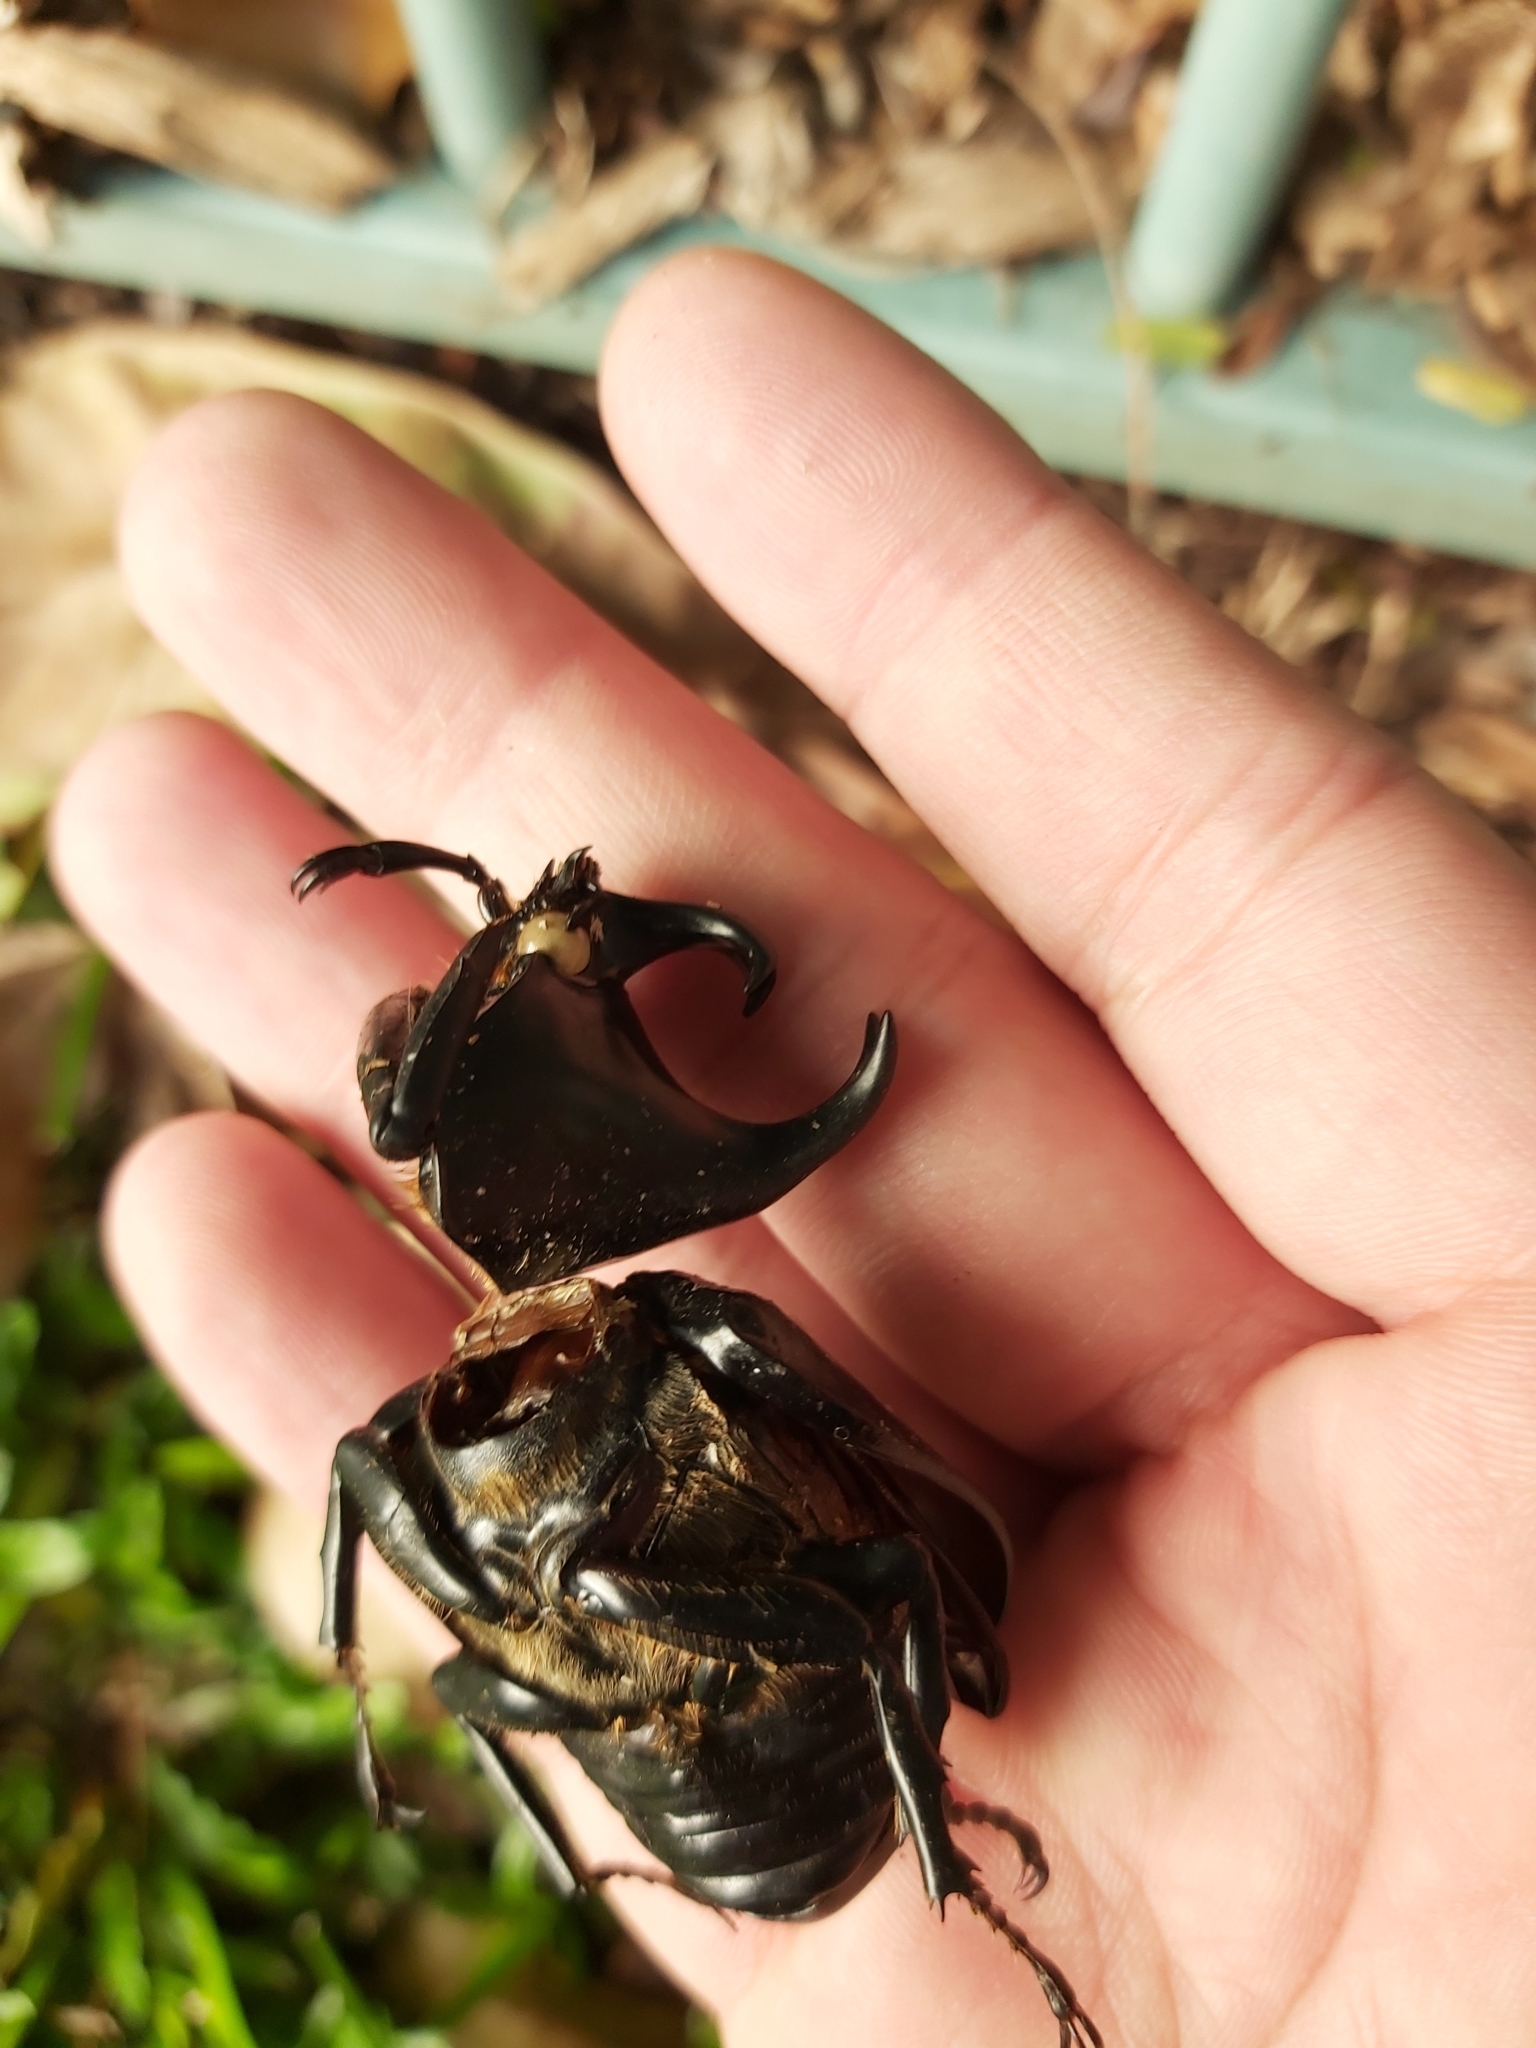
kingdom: Animalia
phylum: Arthropoda
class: Insecta
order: Coleoptera
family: Scarabaeidae
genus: Xylotrupes
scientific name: Xylotrupes australicus
